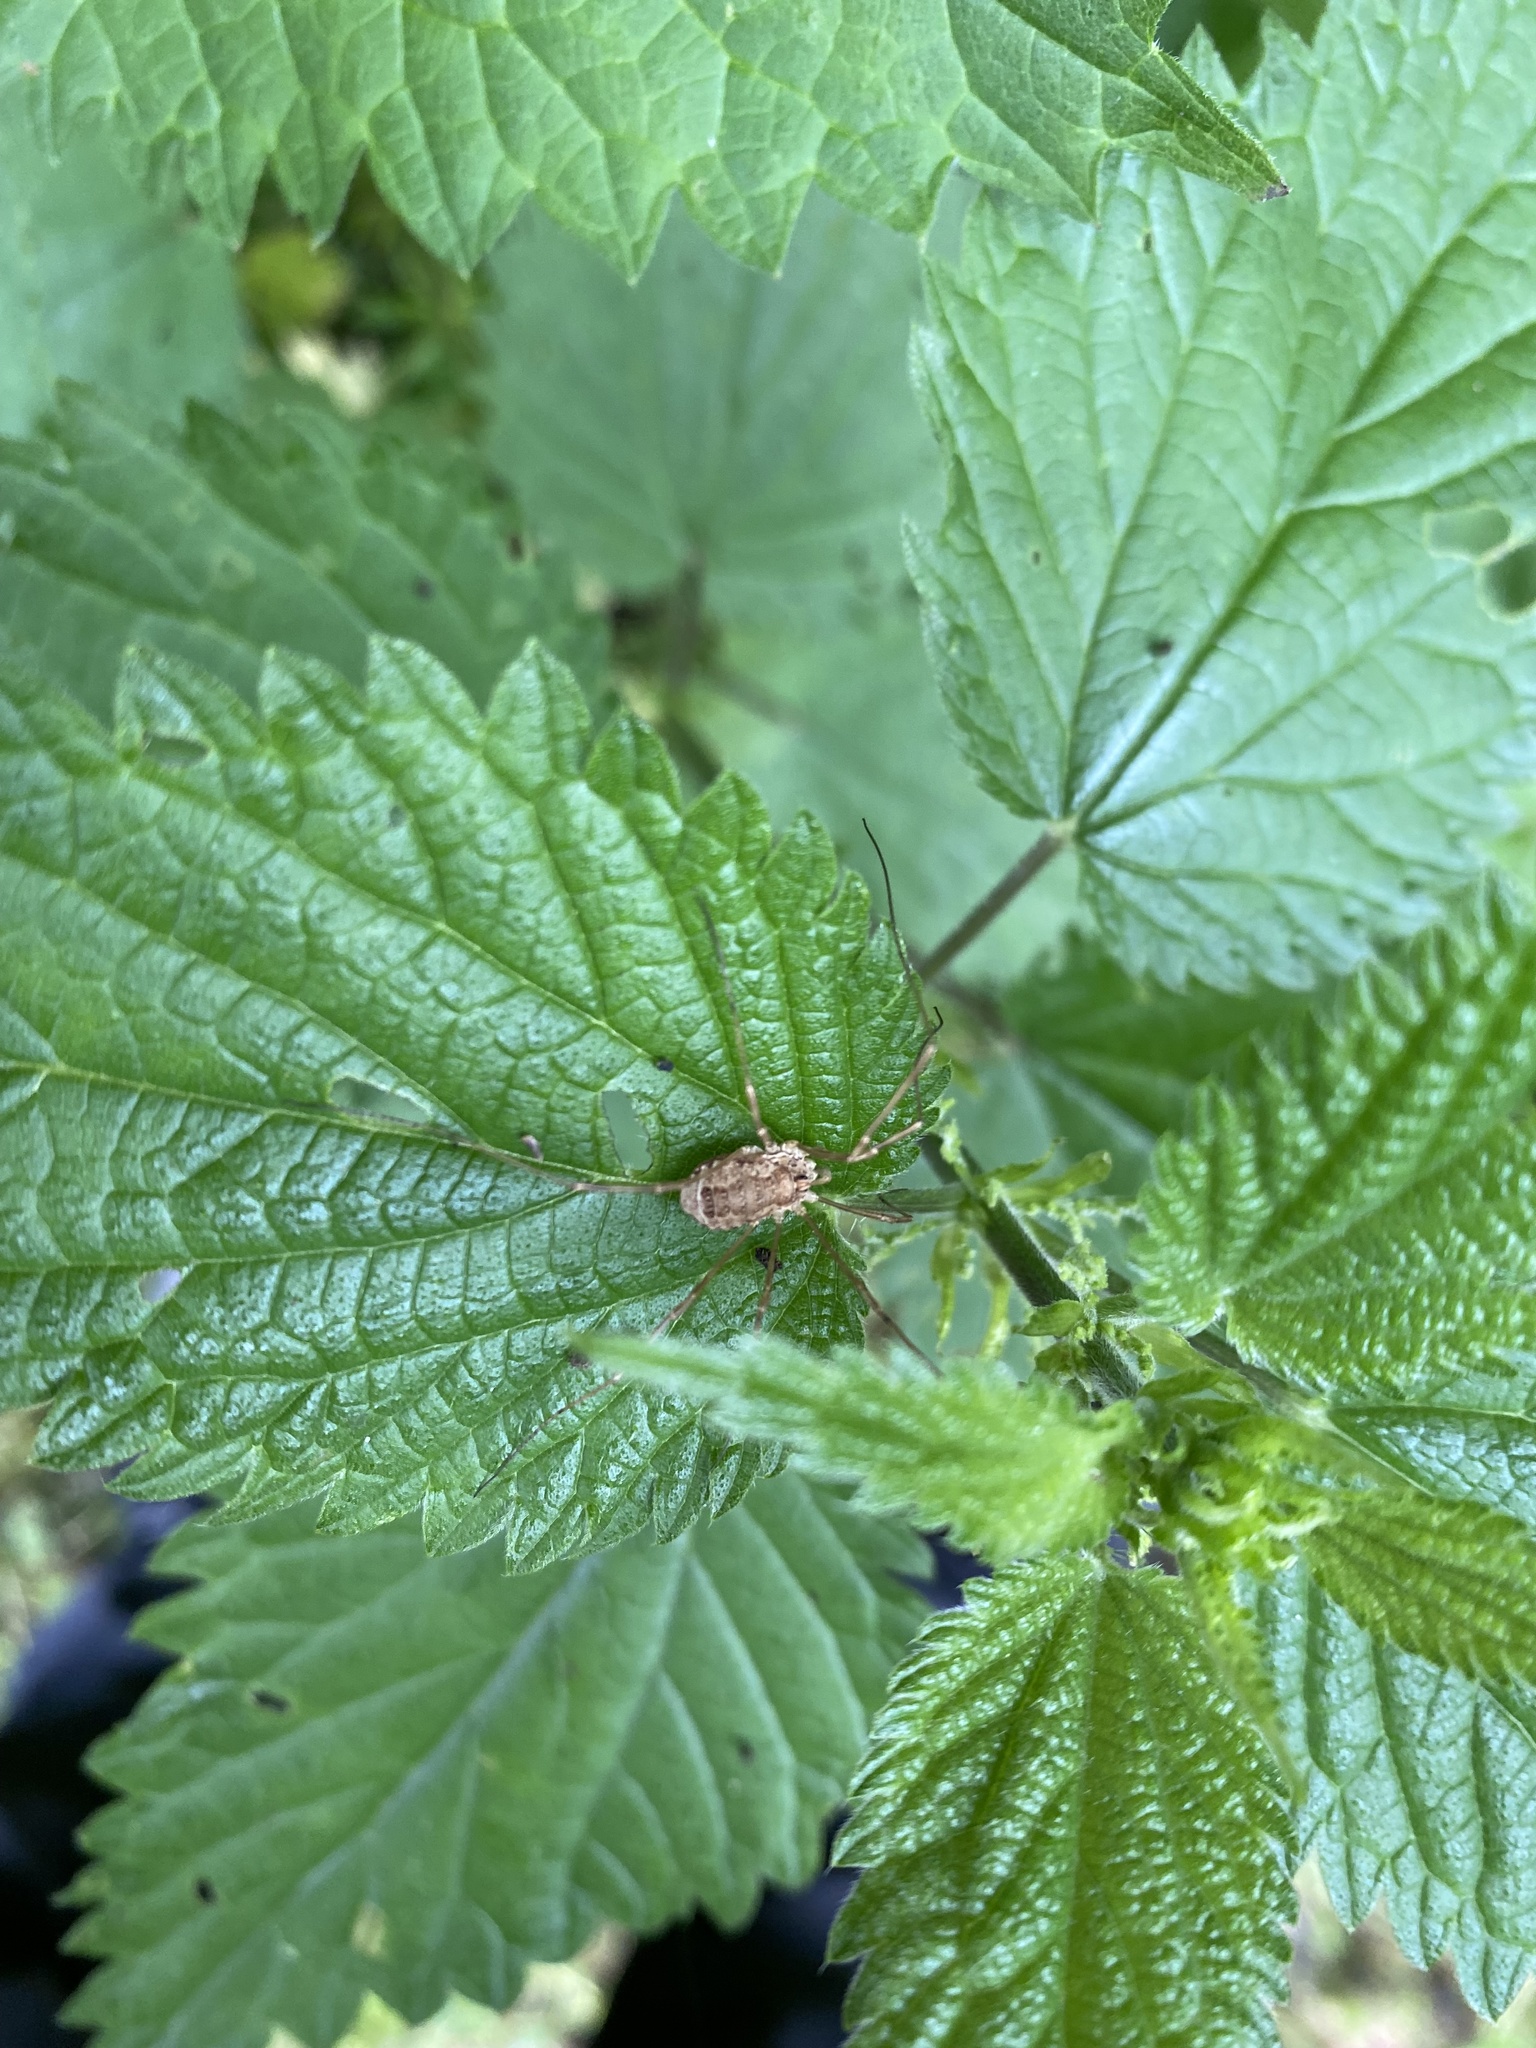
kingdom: Animalia
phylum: Arthropoda
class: Arachnida
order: Opiliones
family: Phalangiidae
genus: Rilaena
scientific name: Rilaena triangularis
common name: Spring harvestman
